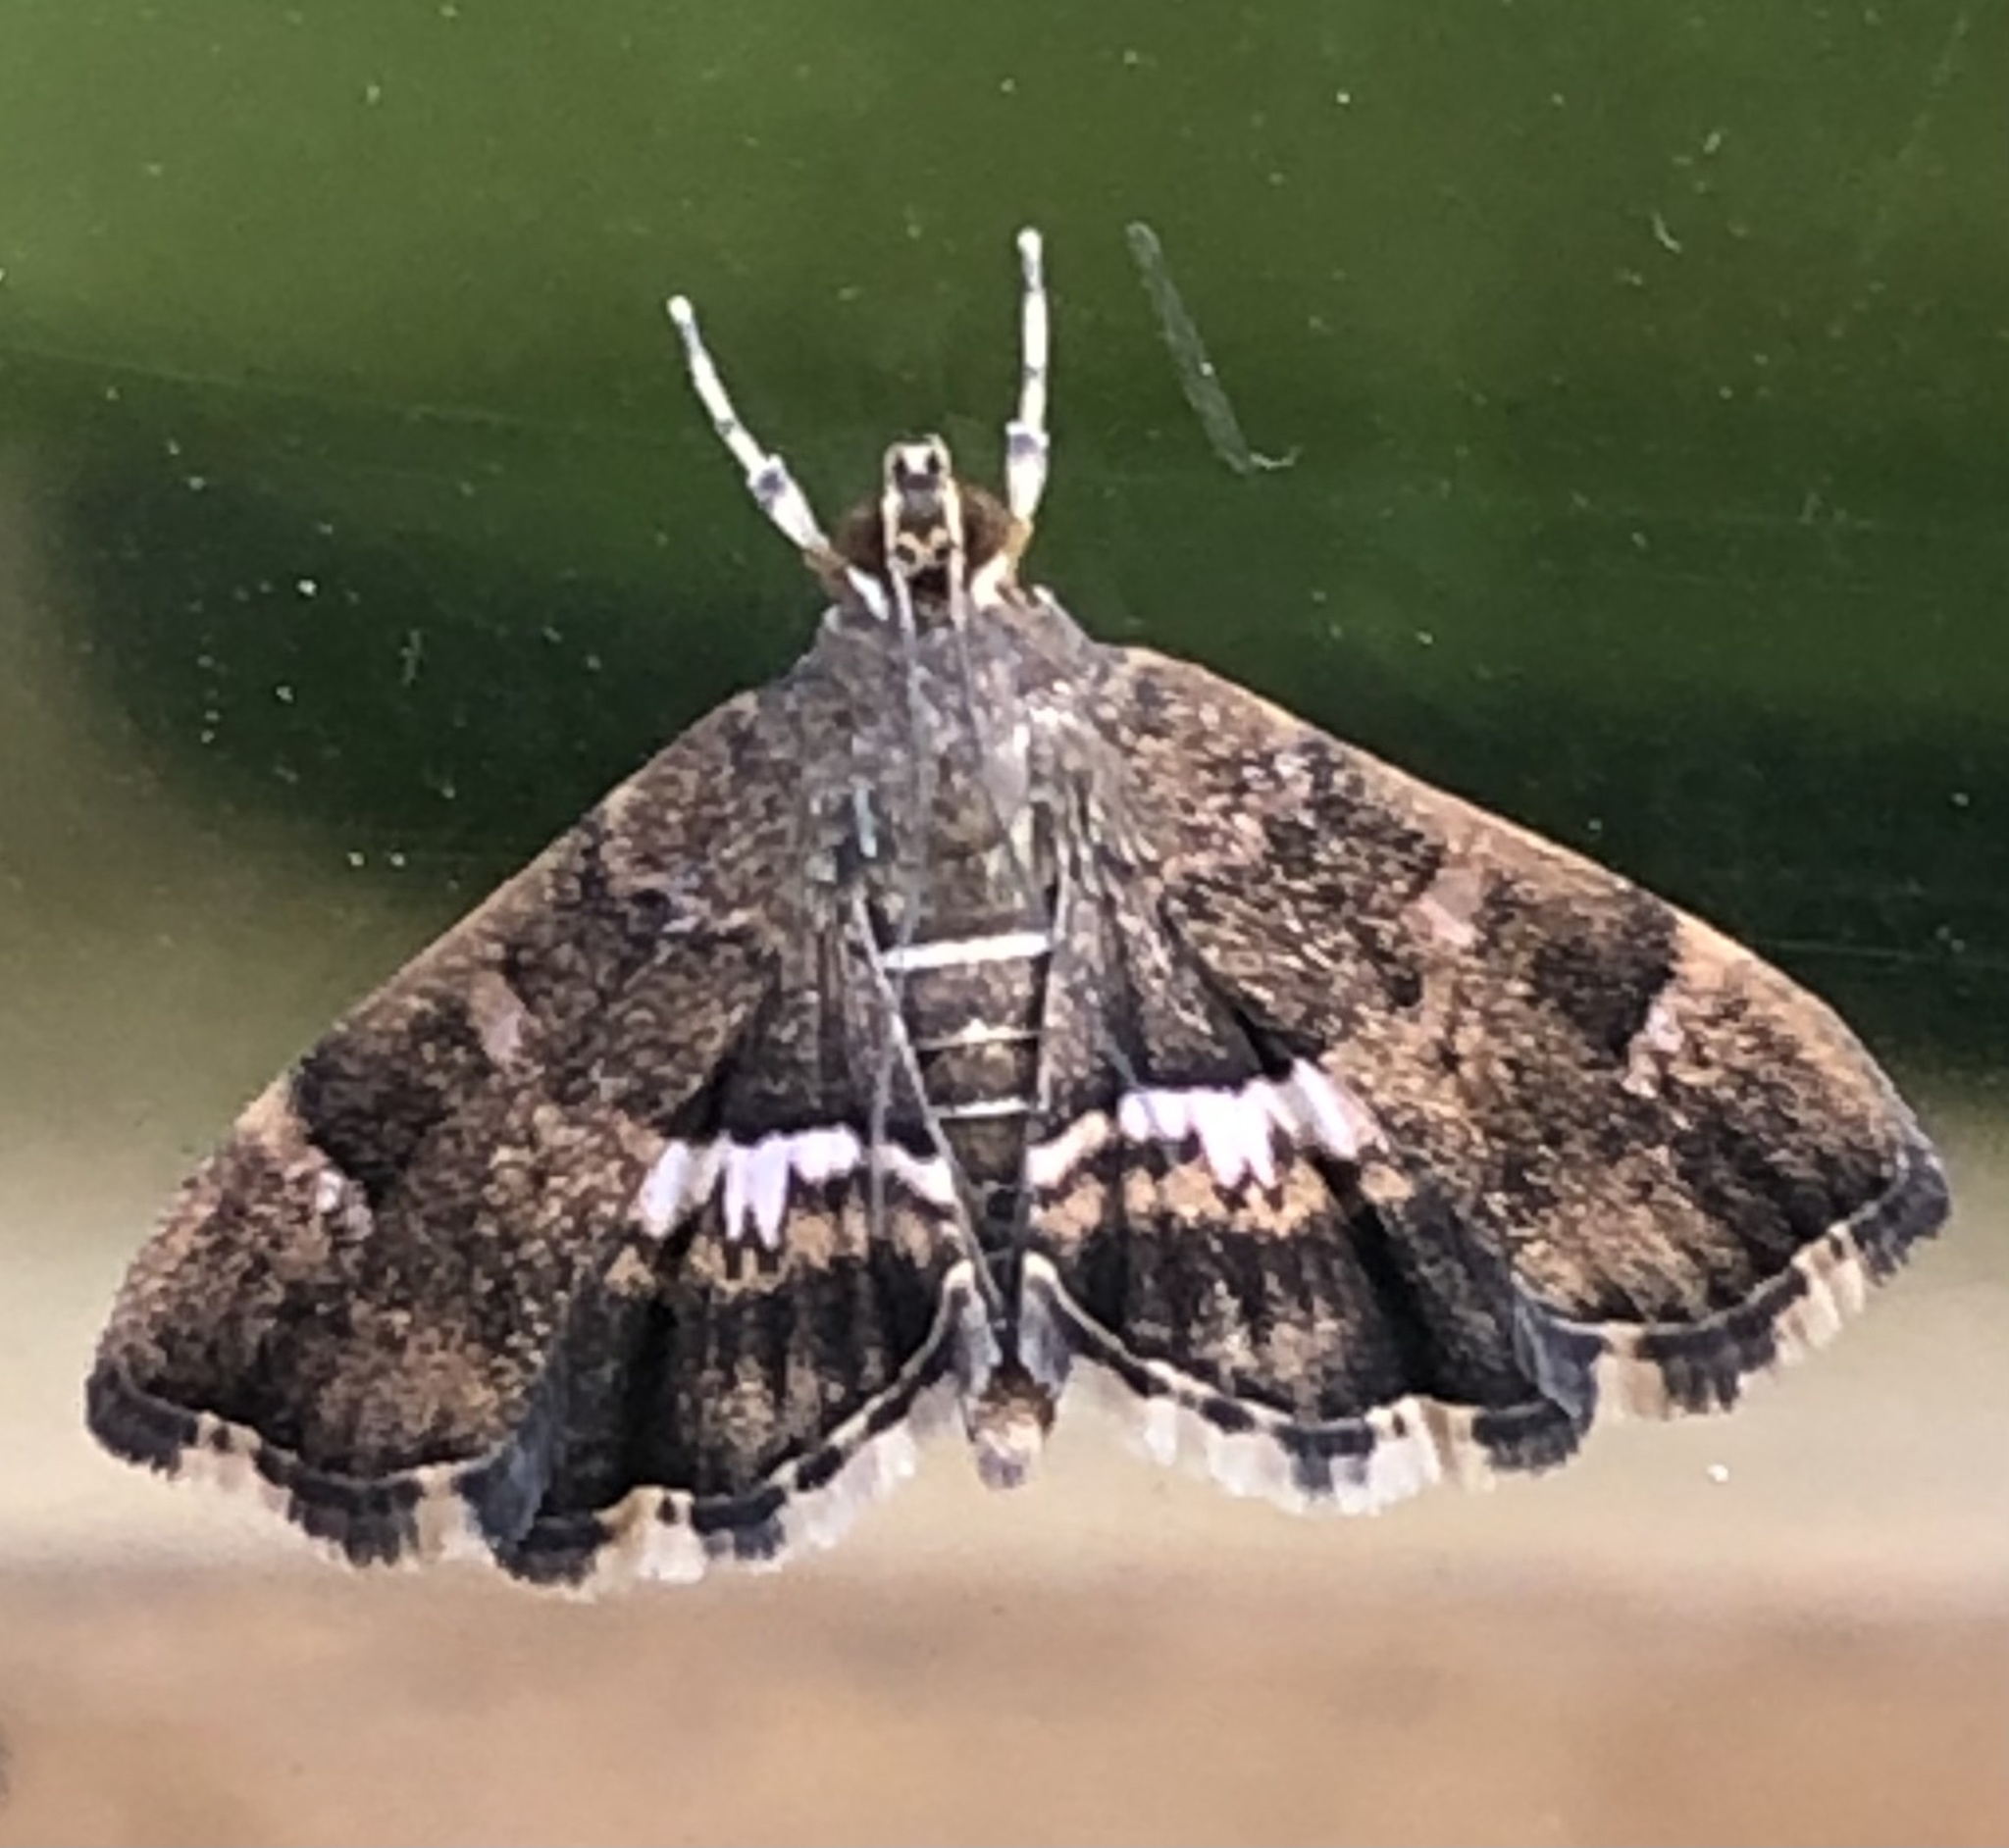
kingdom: Animalia
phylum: Arthropoda
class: Insecta
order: Lepidoptera
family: Crambidae
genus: Hymenia
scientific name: Hymenia perspectalis
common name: Spotted beet webworm
